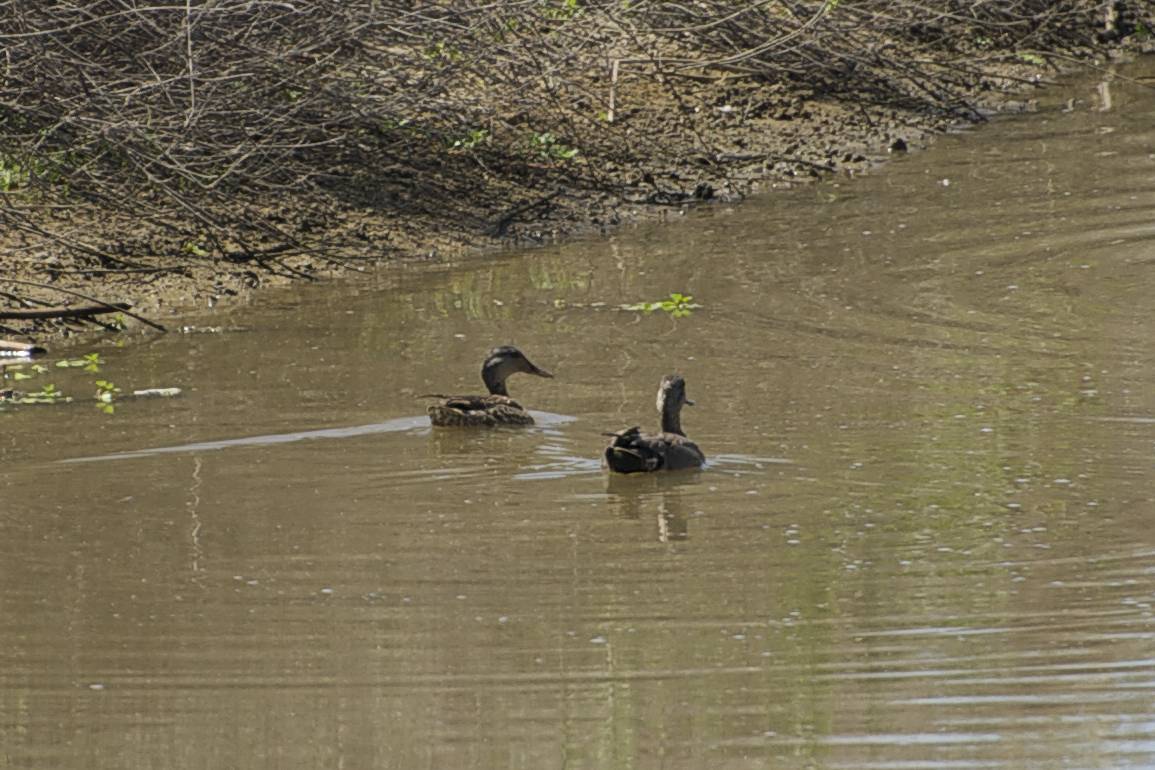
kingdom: Animalia
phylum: Chordata
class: Aves
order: Anseriformes
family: Anatidae
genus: Anas
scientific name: Anas platyrhynchos
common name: Mallard
